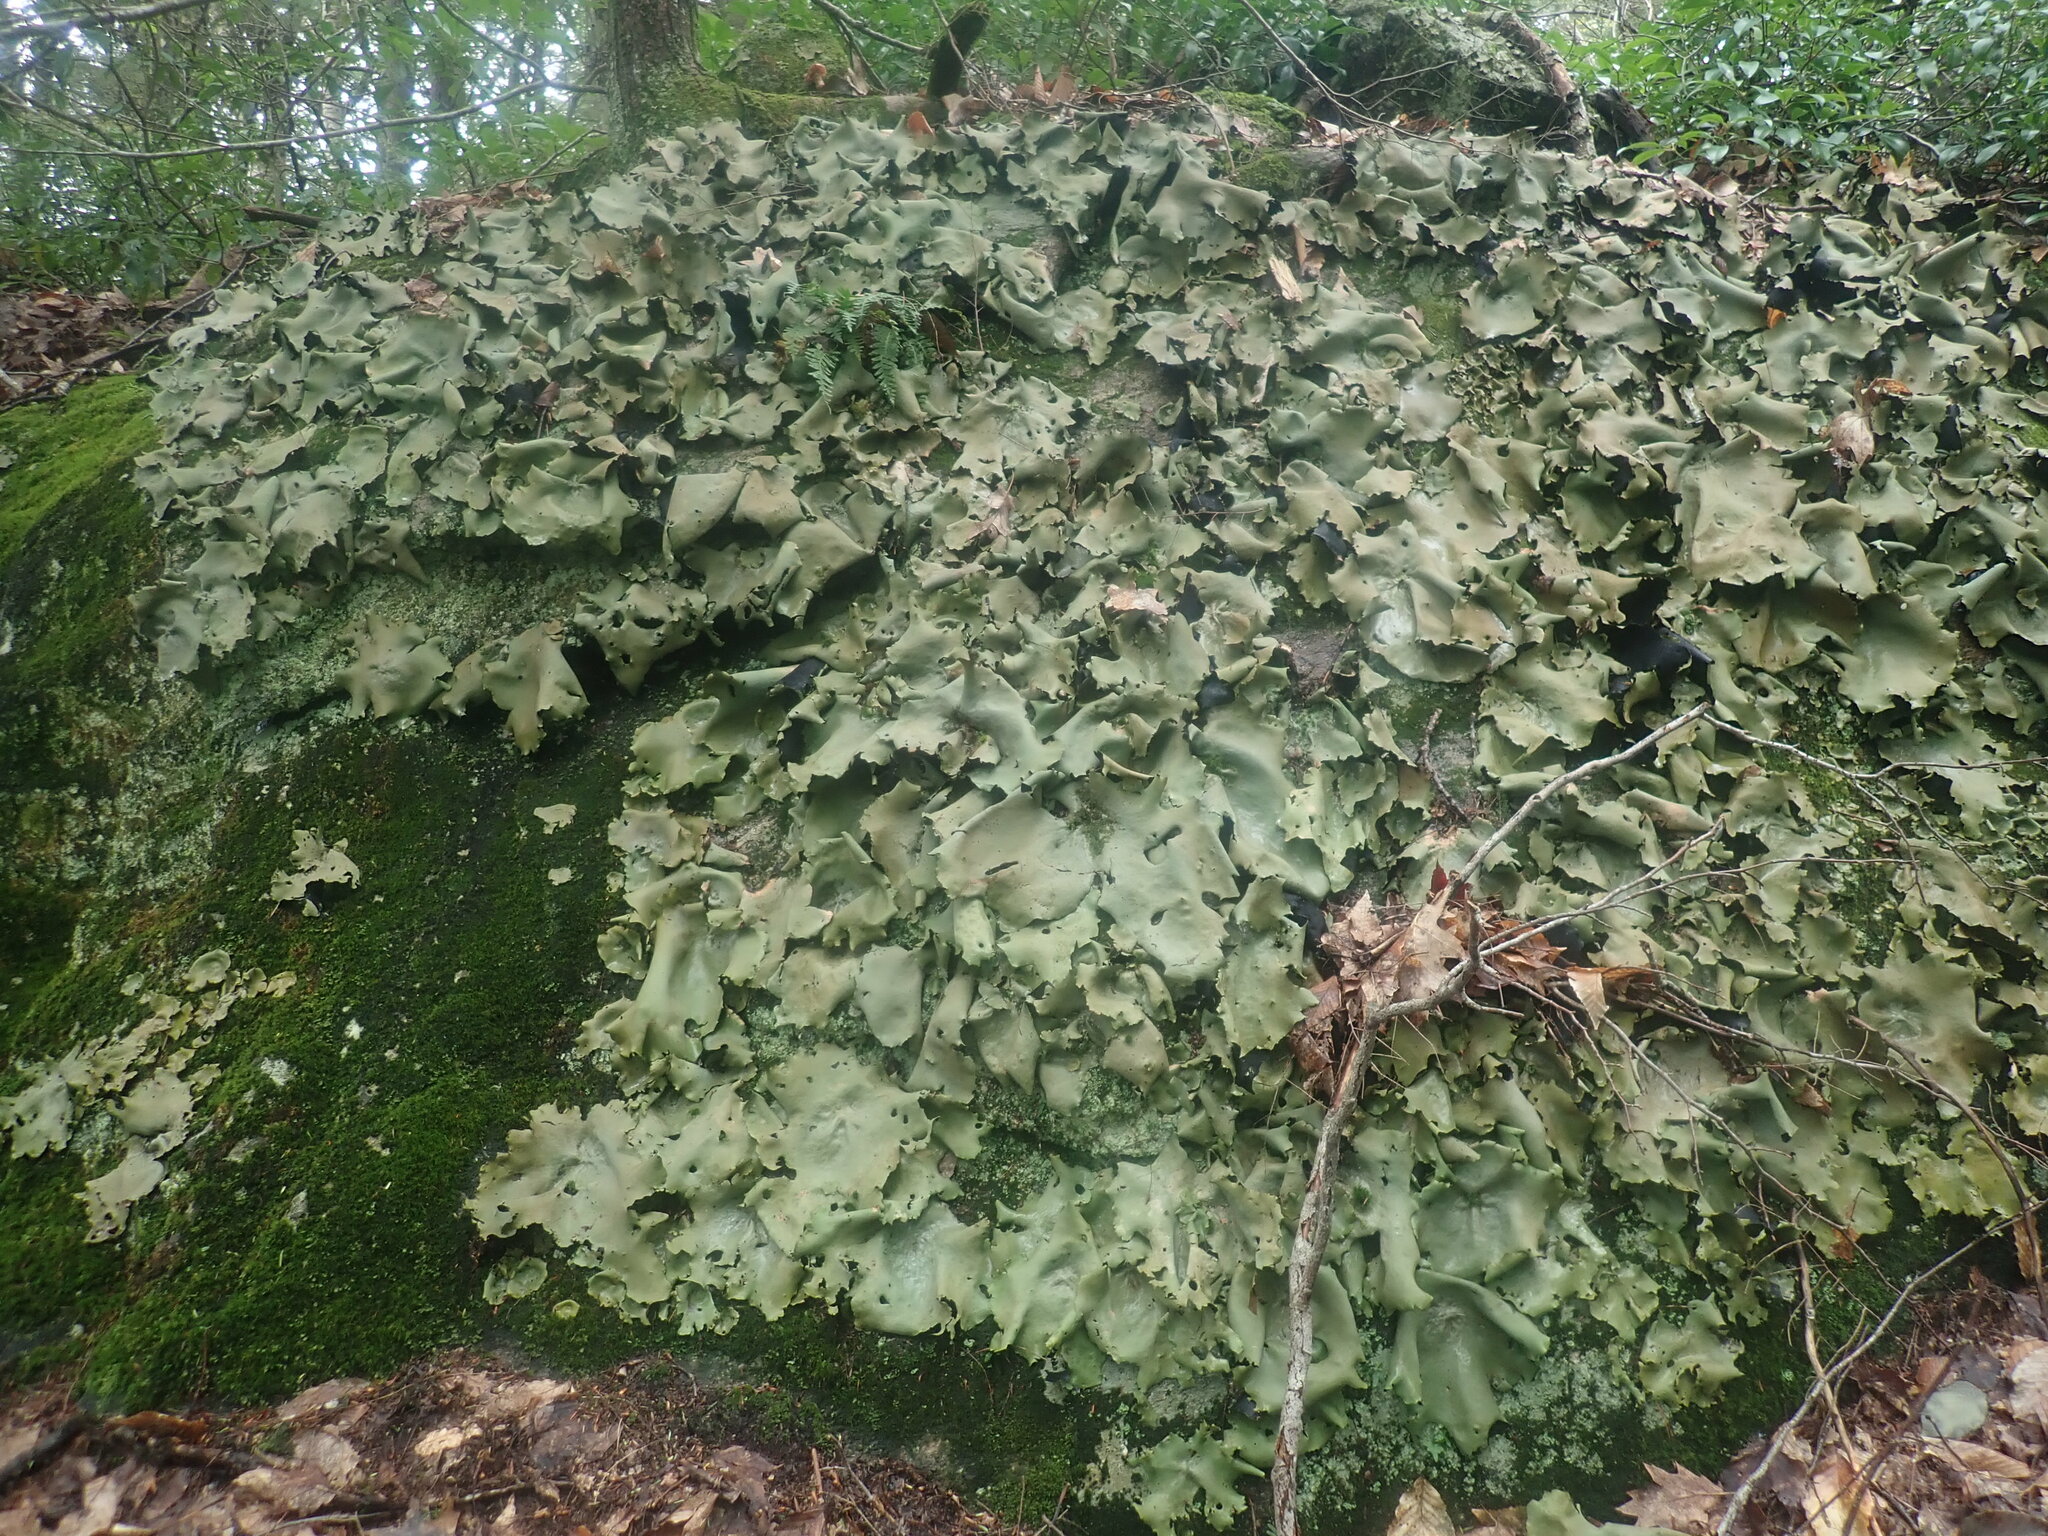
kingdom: Fungi
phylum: Ascomycota
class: Lecanoromycetes
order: Umbilicariales
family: Umbilicariaceae
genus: Umbilicaria
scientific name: Umbilicaria mammulata
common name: Smooth rock tripe
